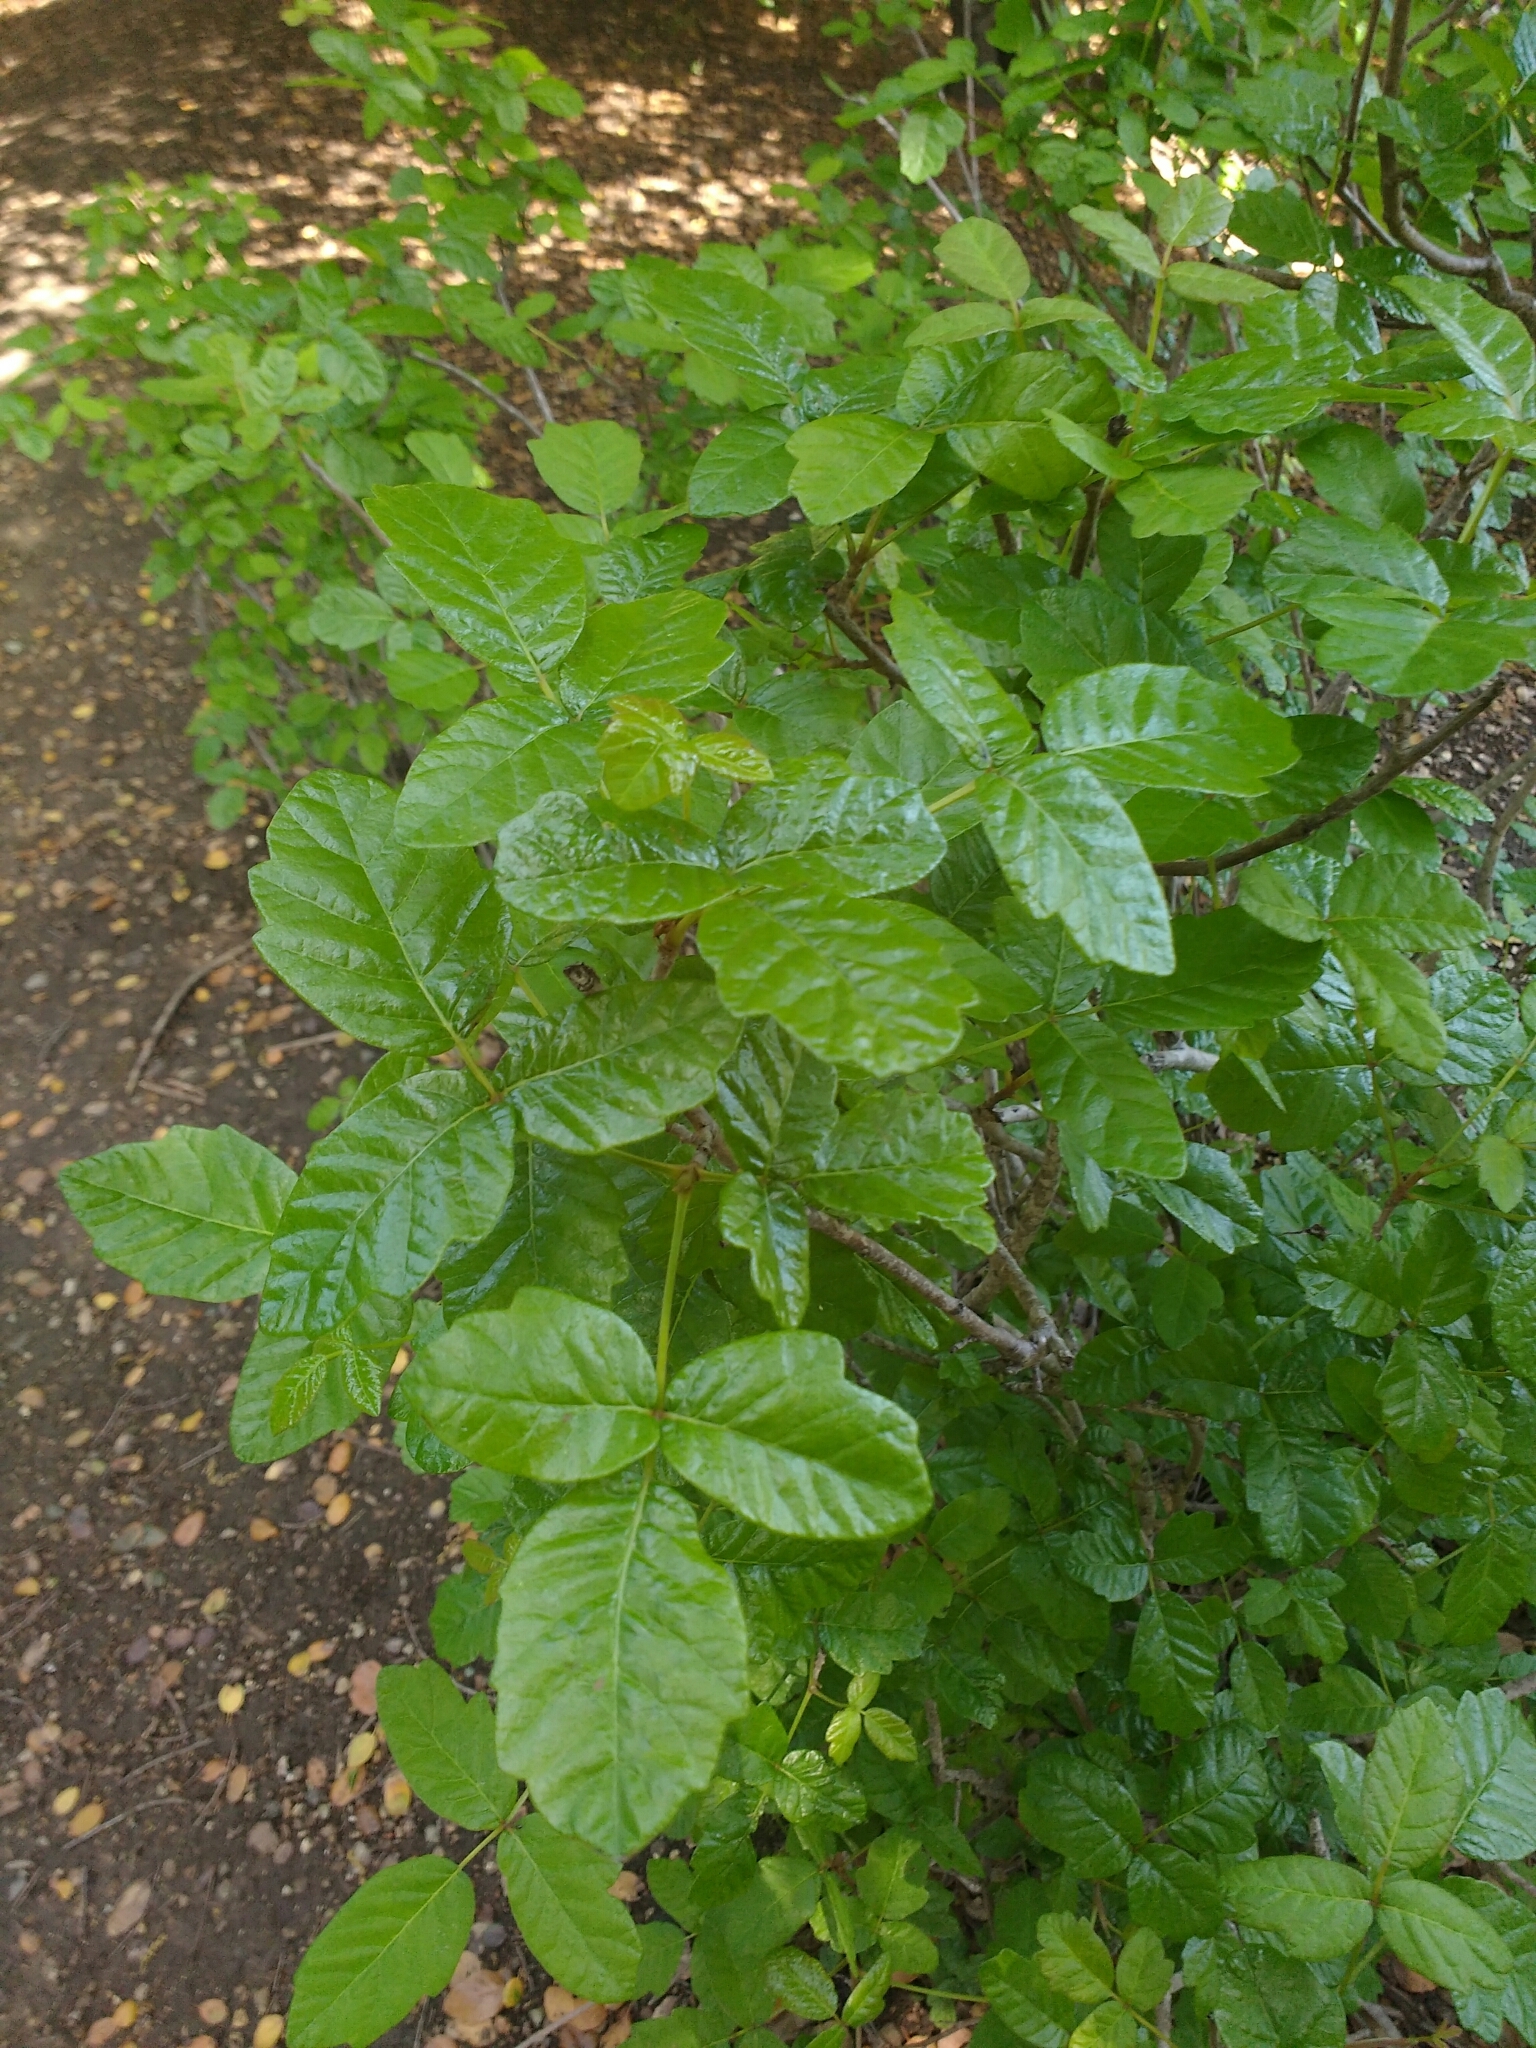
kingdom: Plantae
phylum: Tracheophyta
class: Magnoliopsida
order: Sapindales
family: Anacardiaceae
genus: Toxicodendron
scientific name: Toxicodendron diversilobum
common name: Pacific poison-oak
